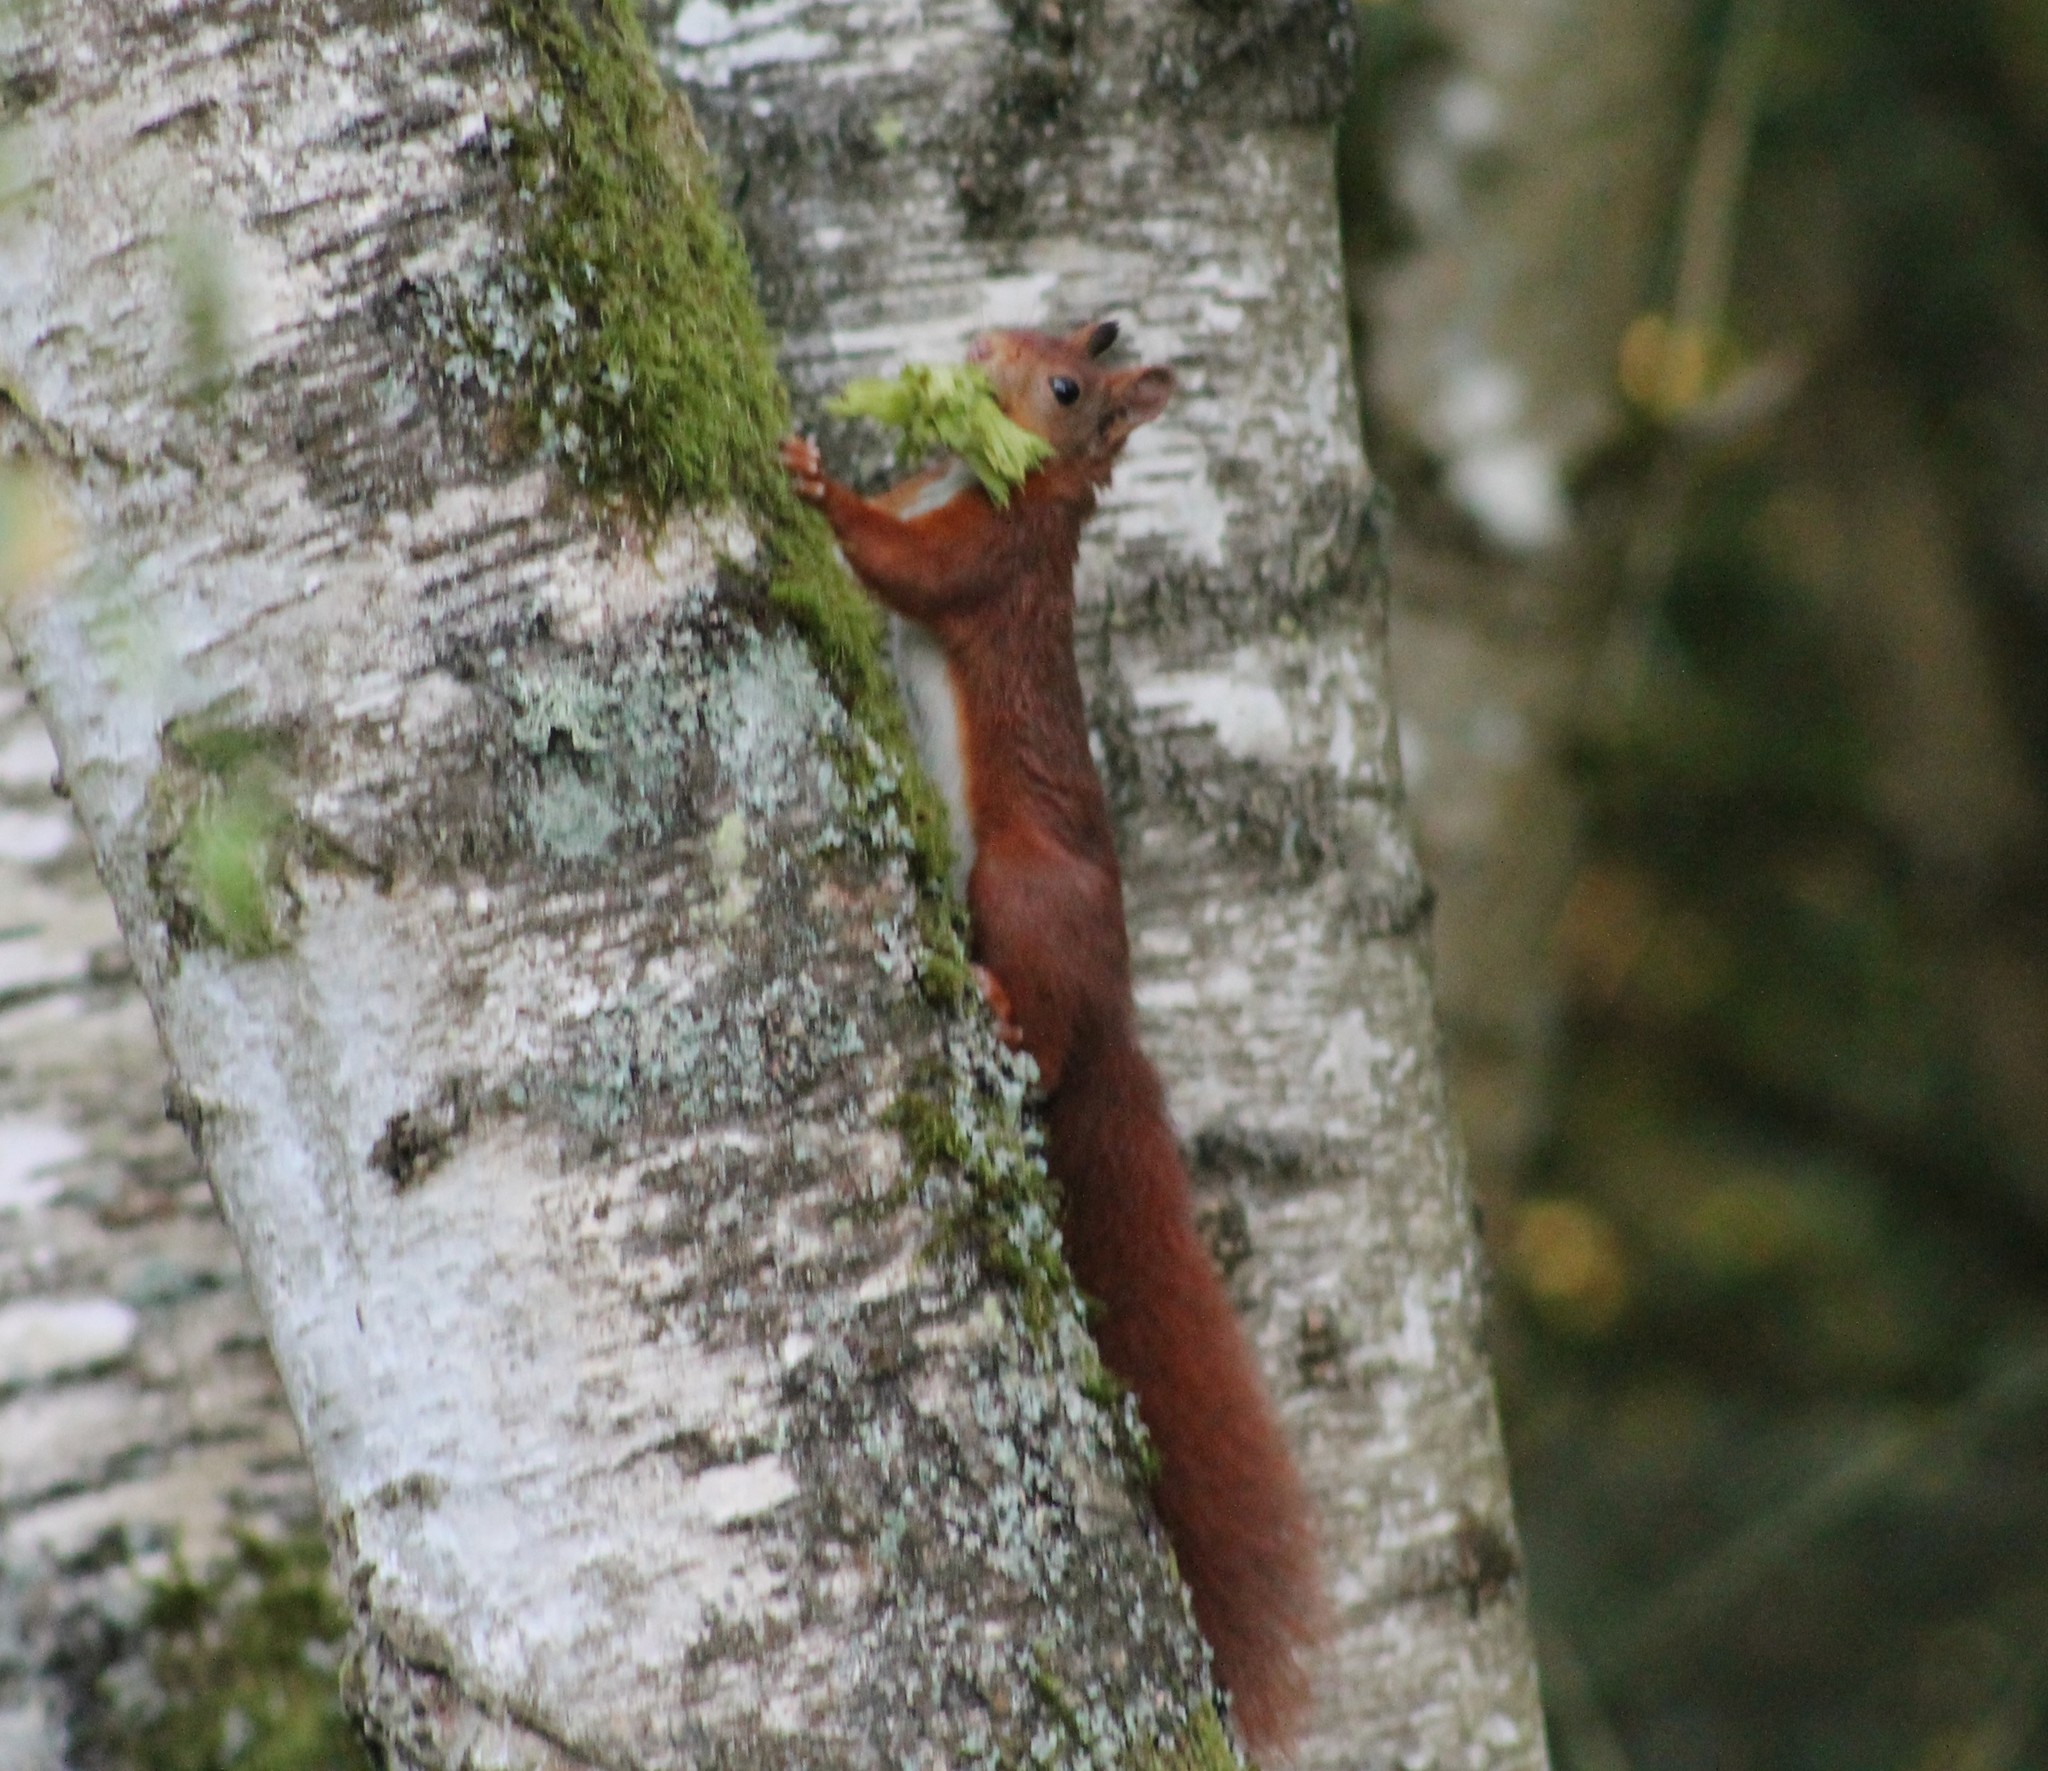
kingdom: Animalia
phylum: Chordata
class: Mammalia
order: Rodentia
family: Sciuridae
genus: Sciurus
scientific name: Sciurus vulgaris
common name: Eurasian red squirrel
